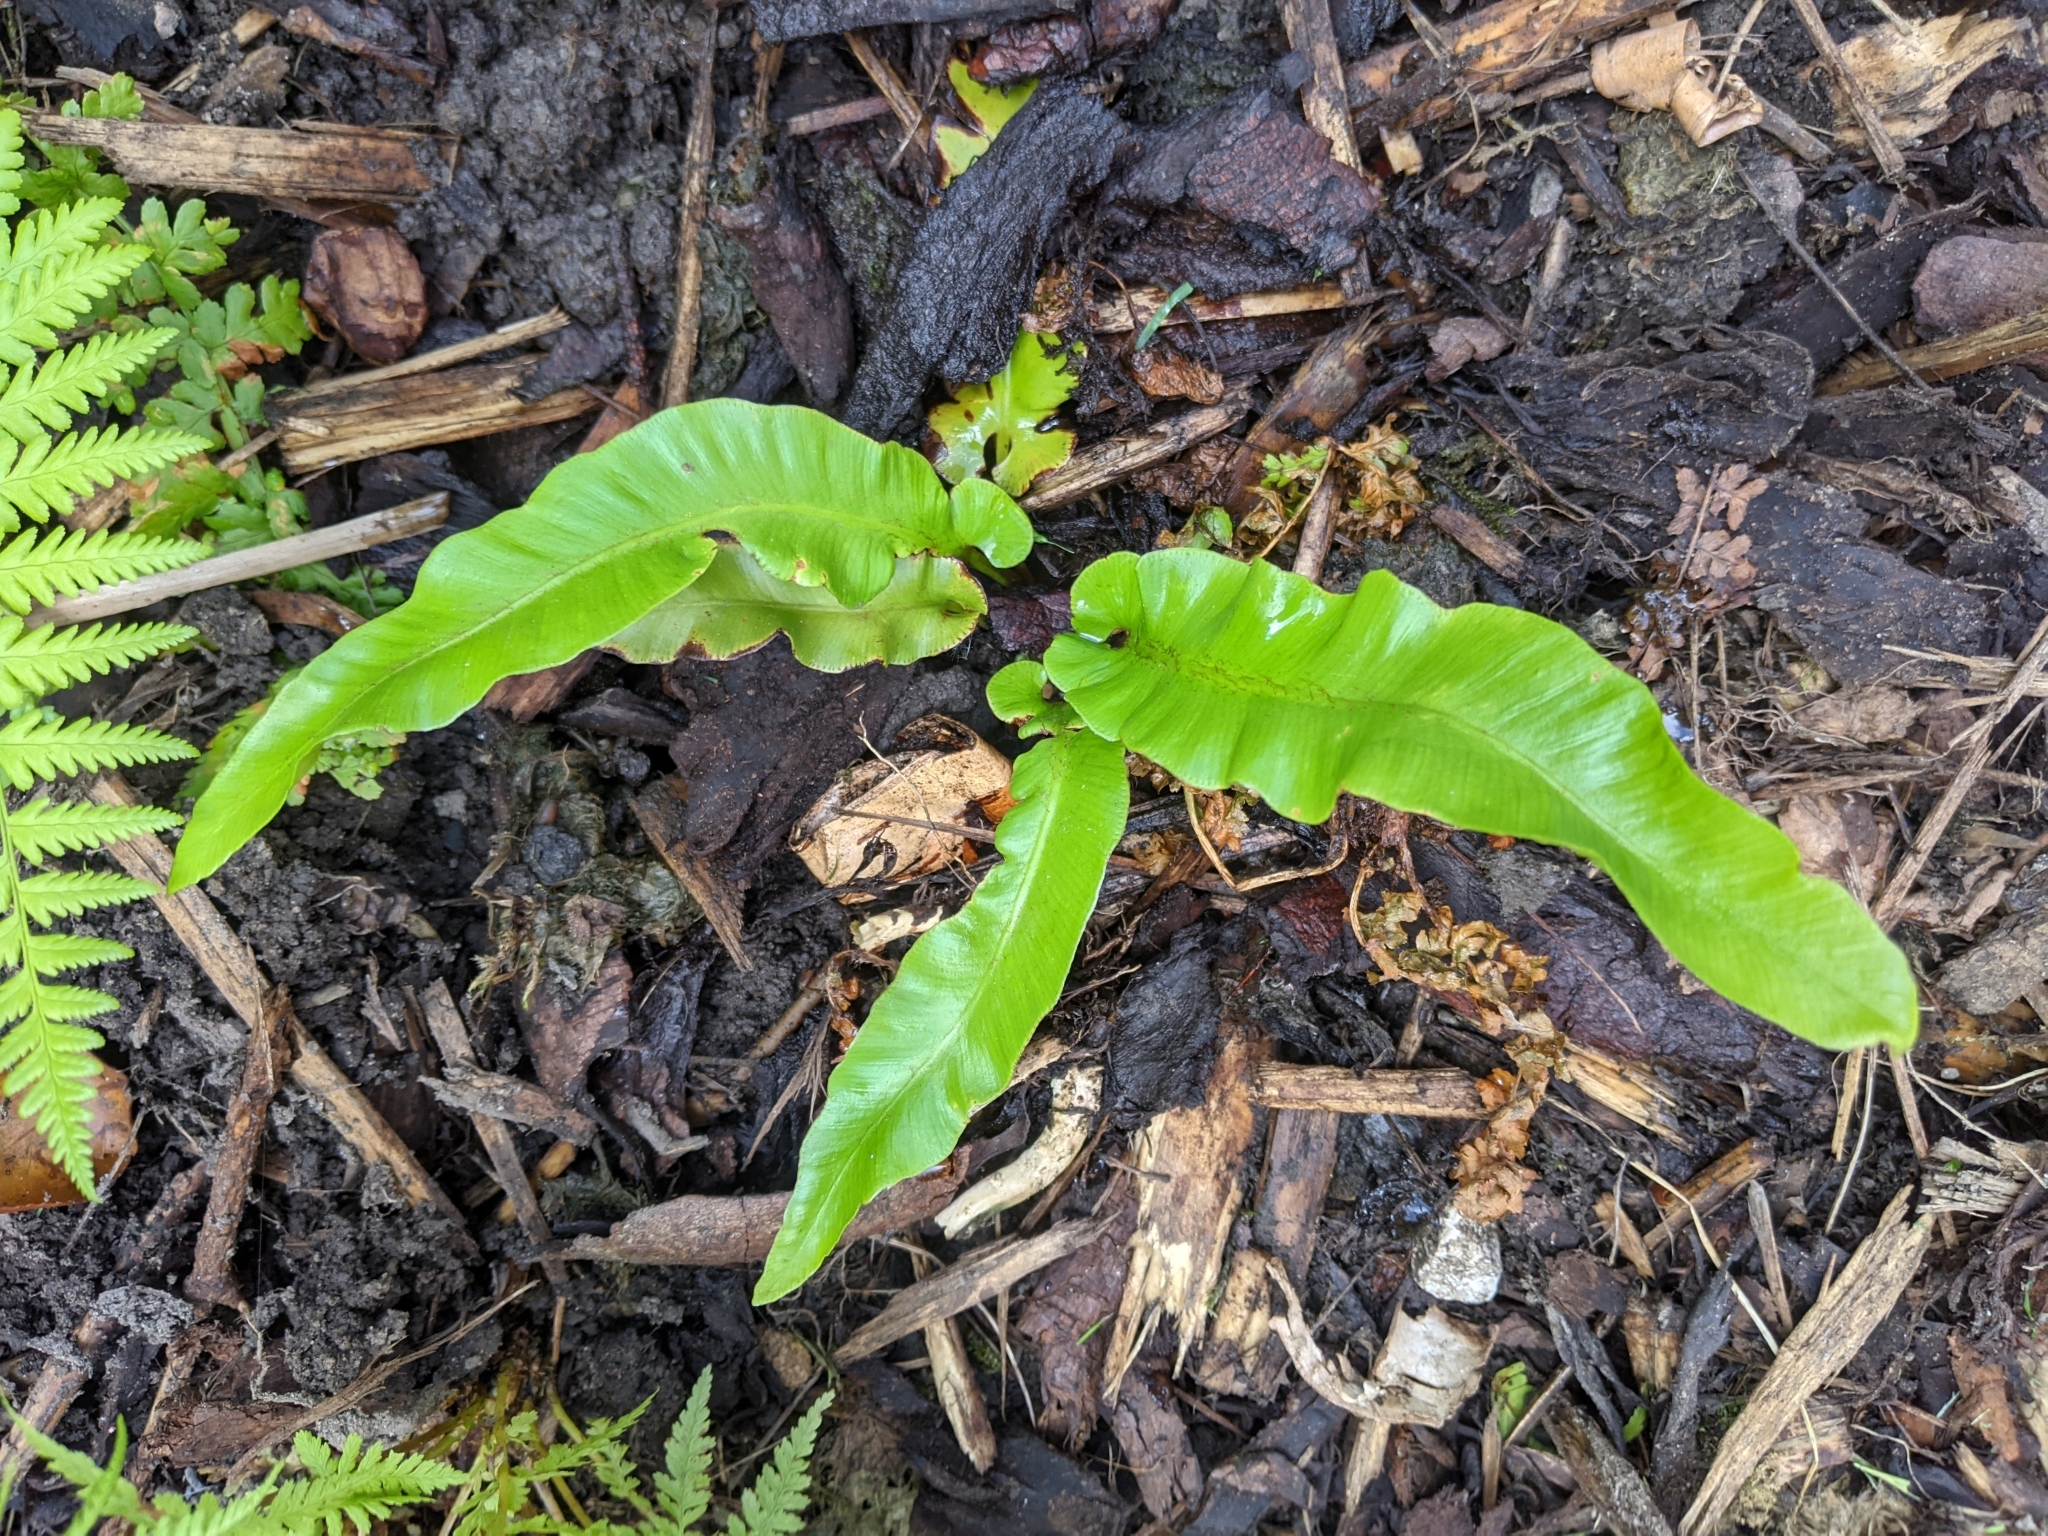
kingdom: Plantae
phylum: Tracheophyta
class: Polypodiopsida
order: Polypodiales
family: Aspleniaceae
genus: Asplenium
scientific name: Asplenium scolopendrium
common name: Hart's-tongue fern
